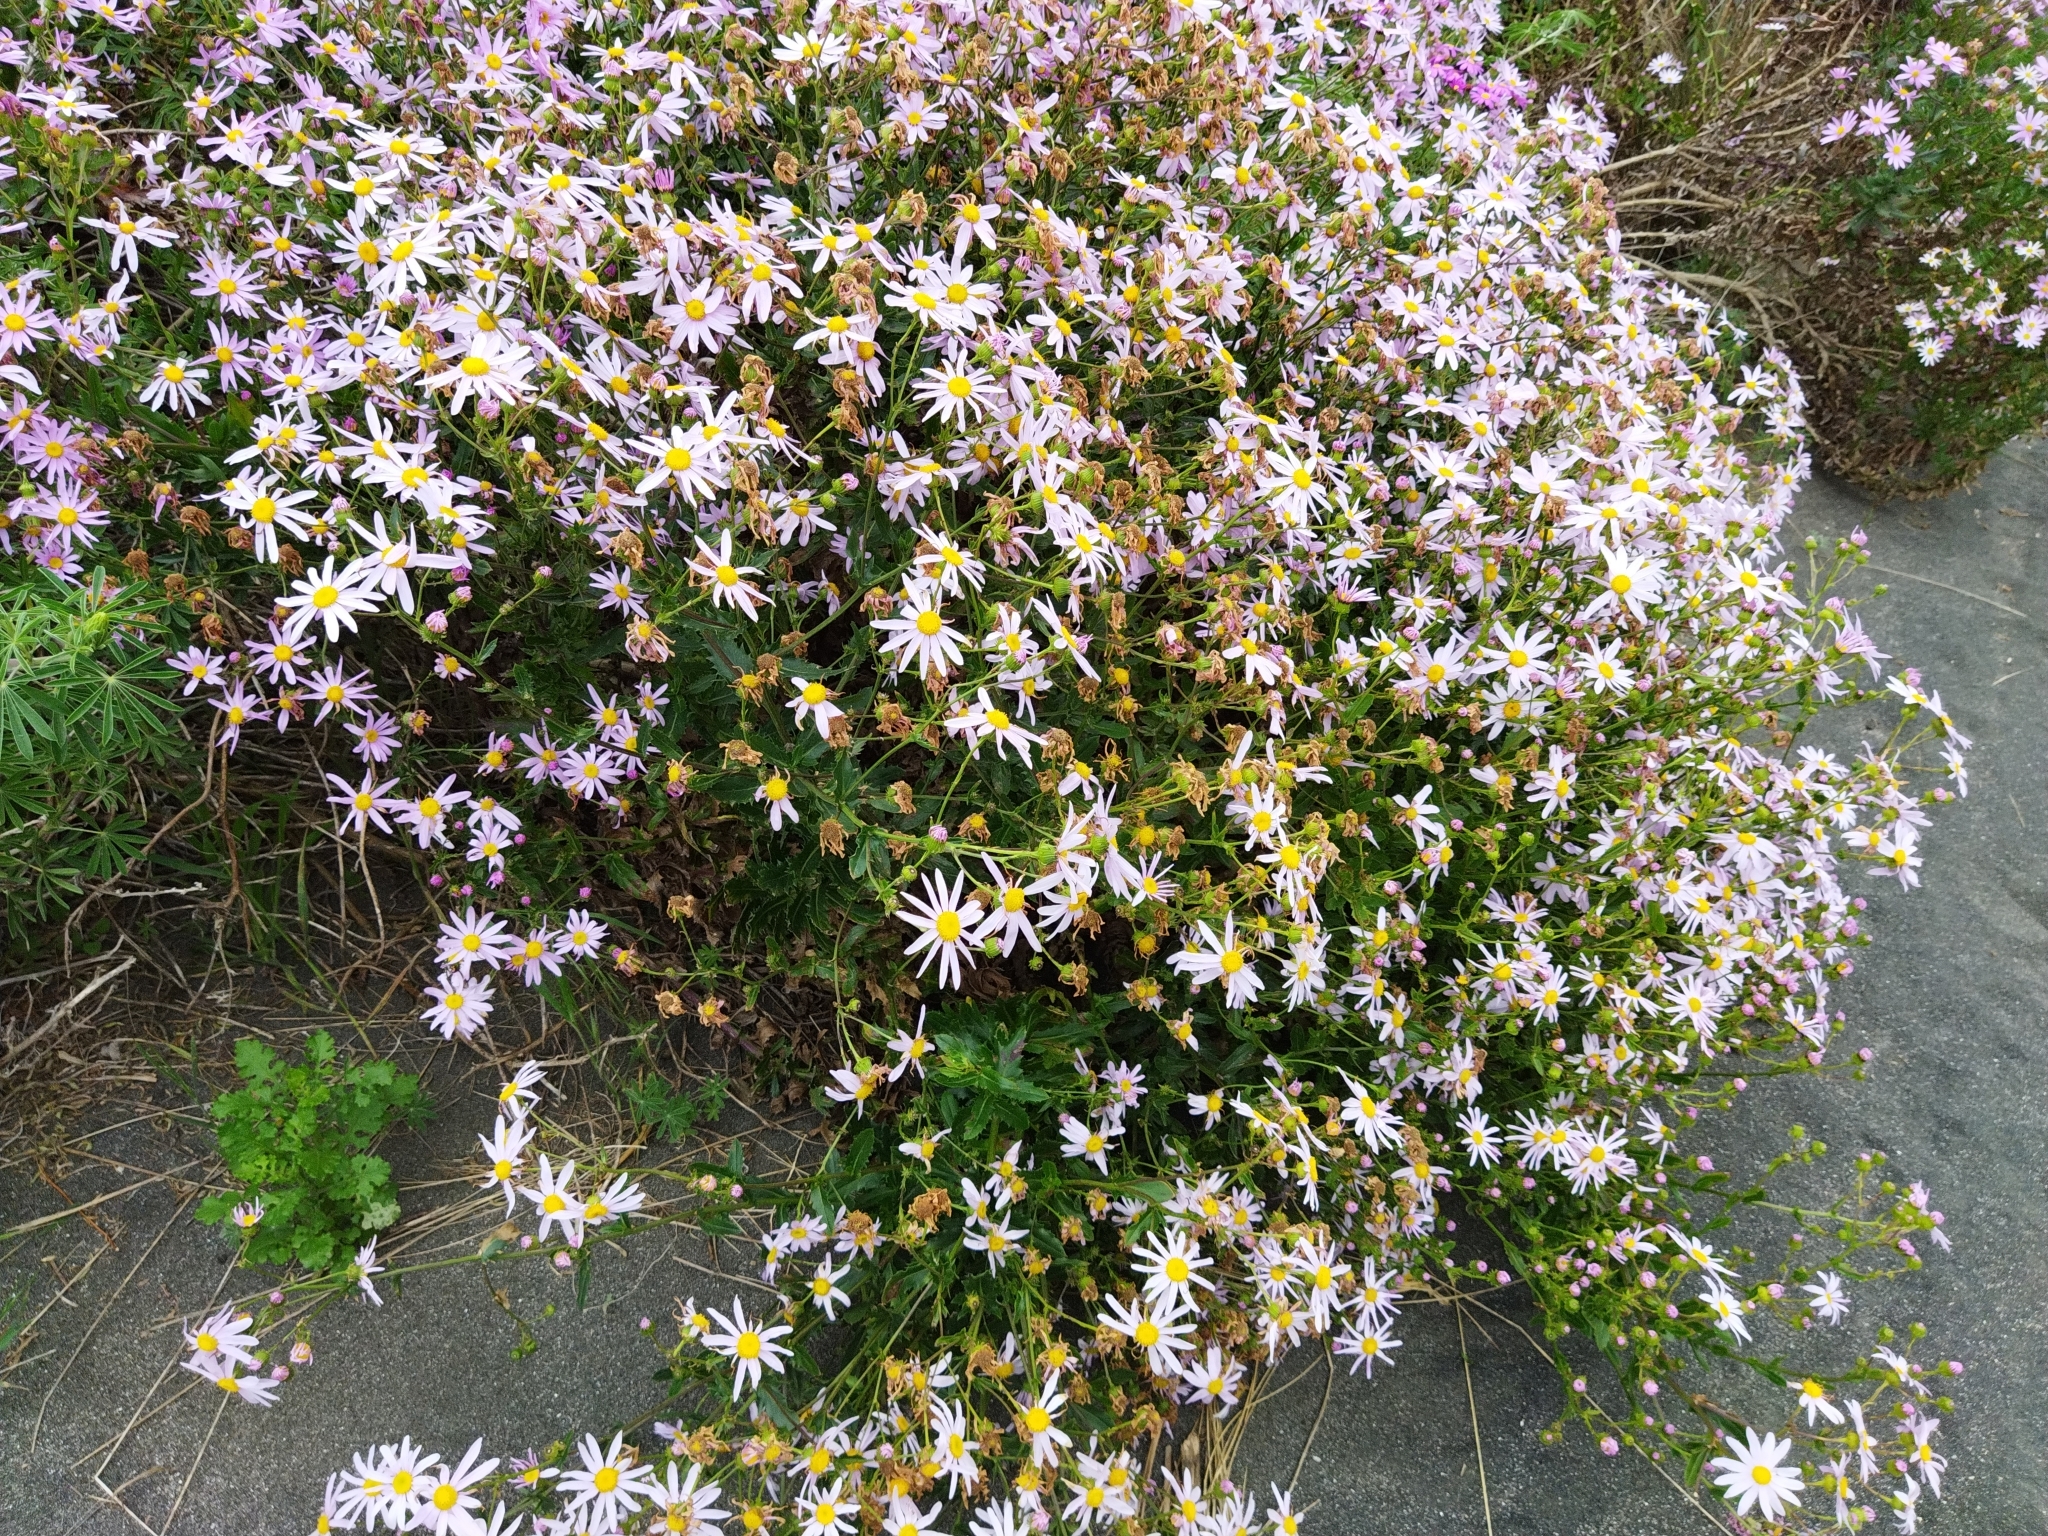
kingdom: Plantae
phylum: Tracheophyta
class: Magnoliopsida
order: Asterales
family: Asteraceae
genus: Senecio
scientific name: Senecio glastifolius
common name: Woad-leaved ragwort
